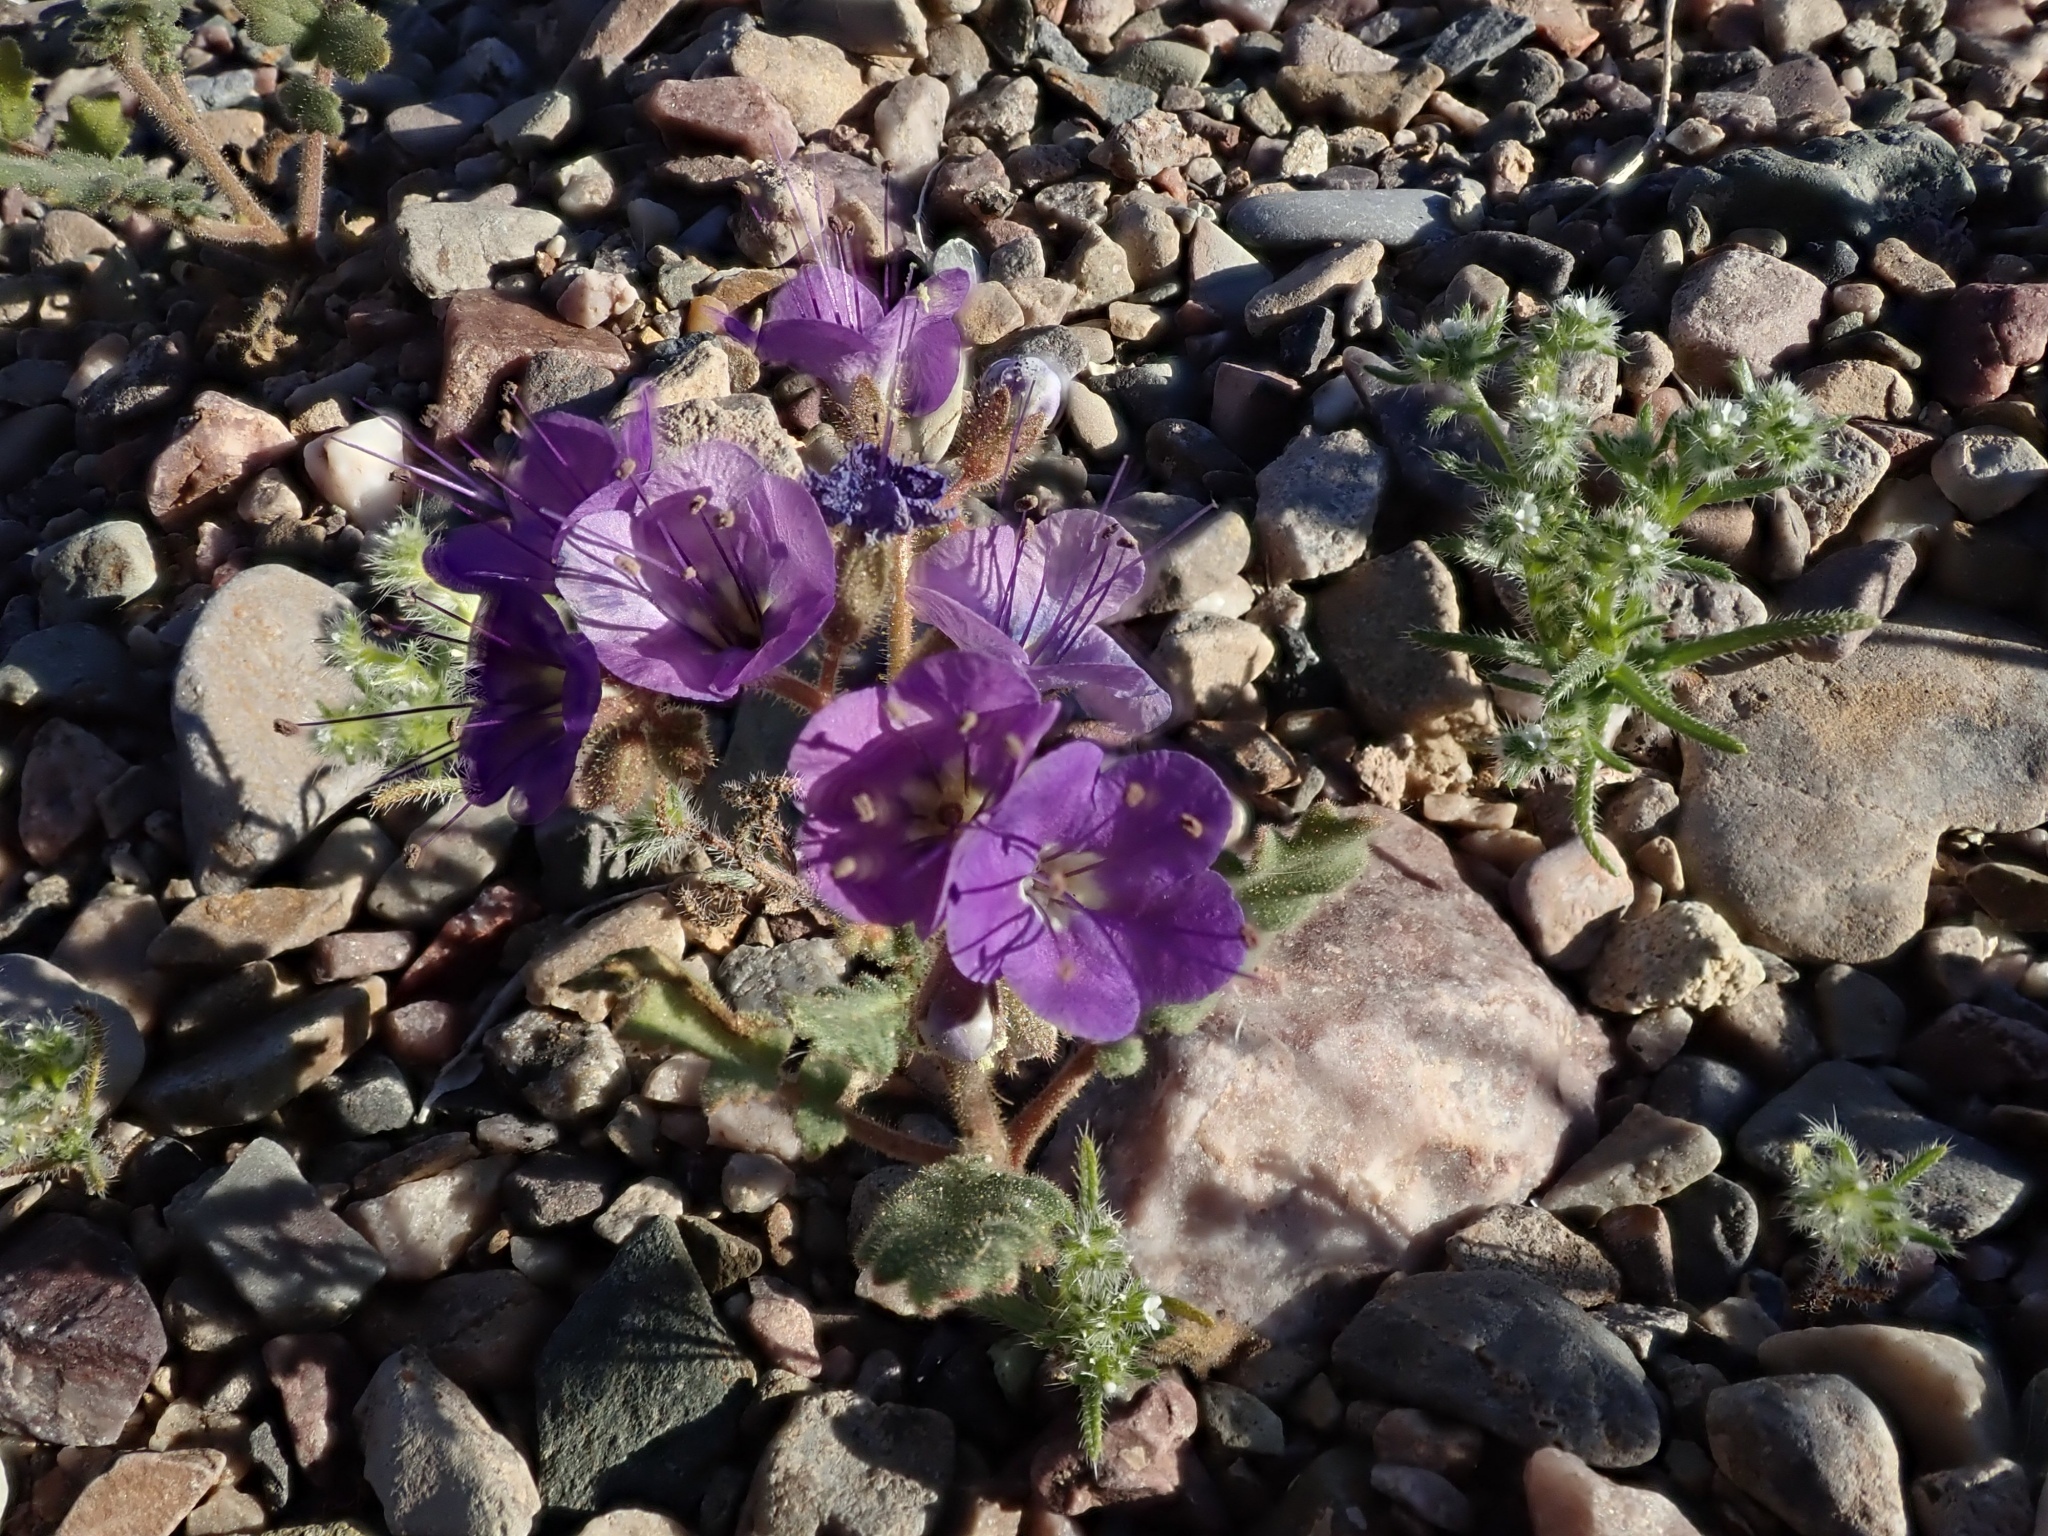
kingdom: Plantae
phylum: Tracheophyta
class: Magnoliopsida
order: Boraginales
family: Hydrophyllaceae
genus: Phacelia
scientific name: Phacelia crenulata
